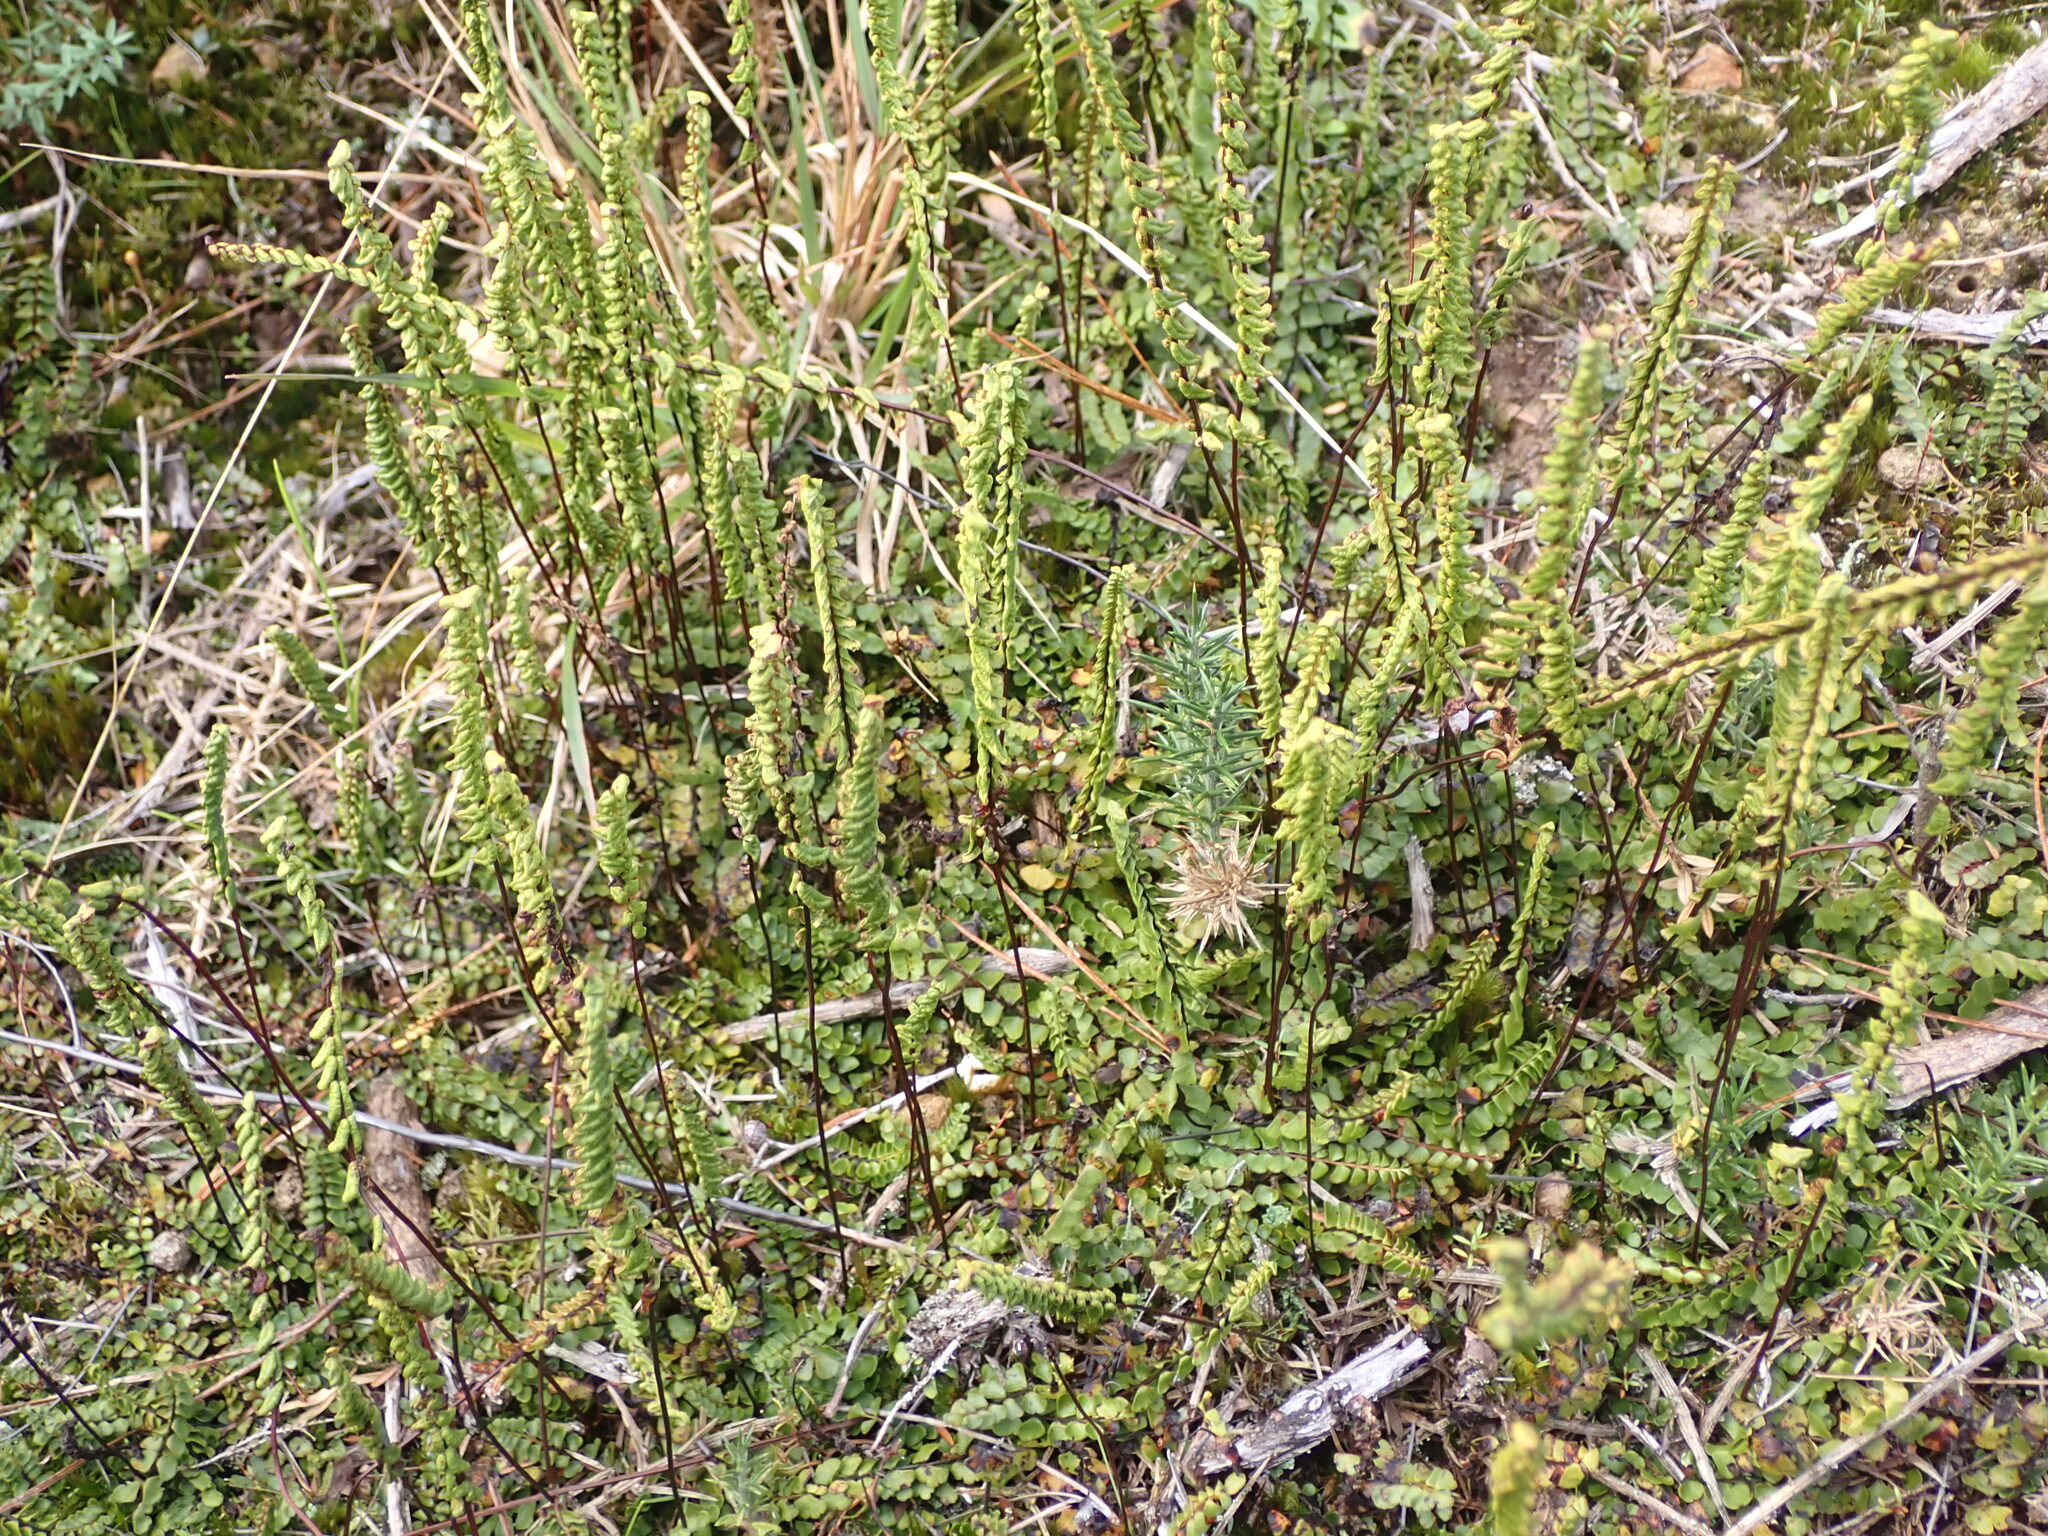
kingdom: Plantae
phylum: Tracheophyta
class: Polypodiopsida
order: Polypodiales
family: Lindsaeaceae
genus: Lindsaea
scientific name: Lindsaea linearis
